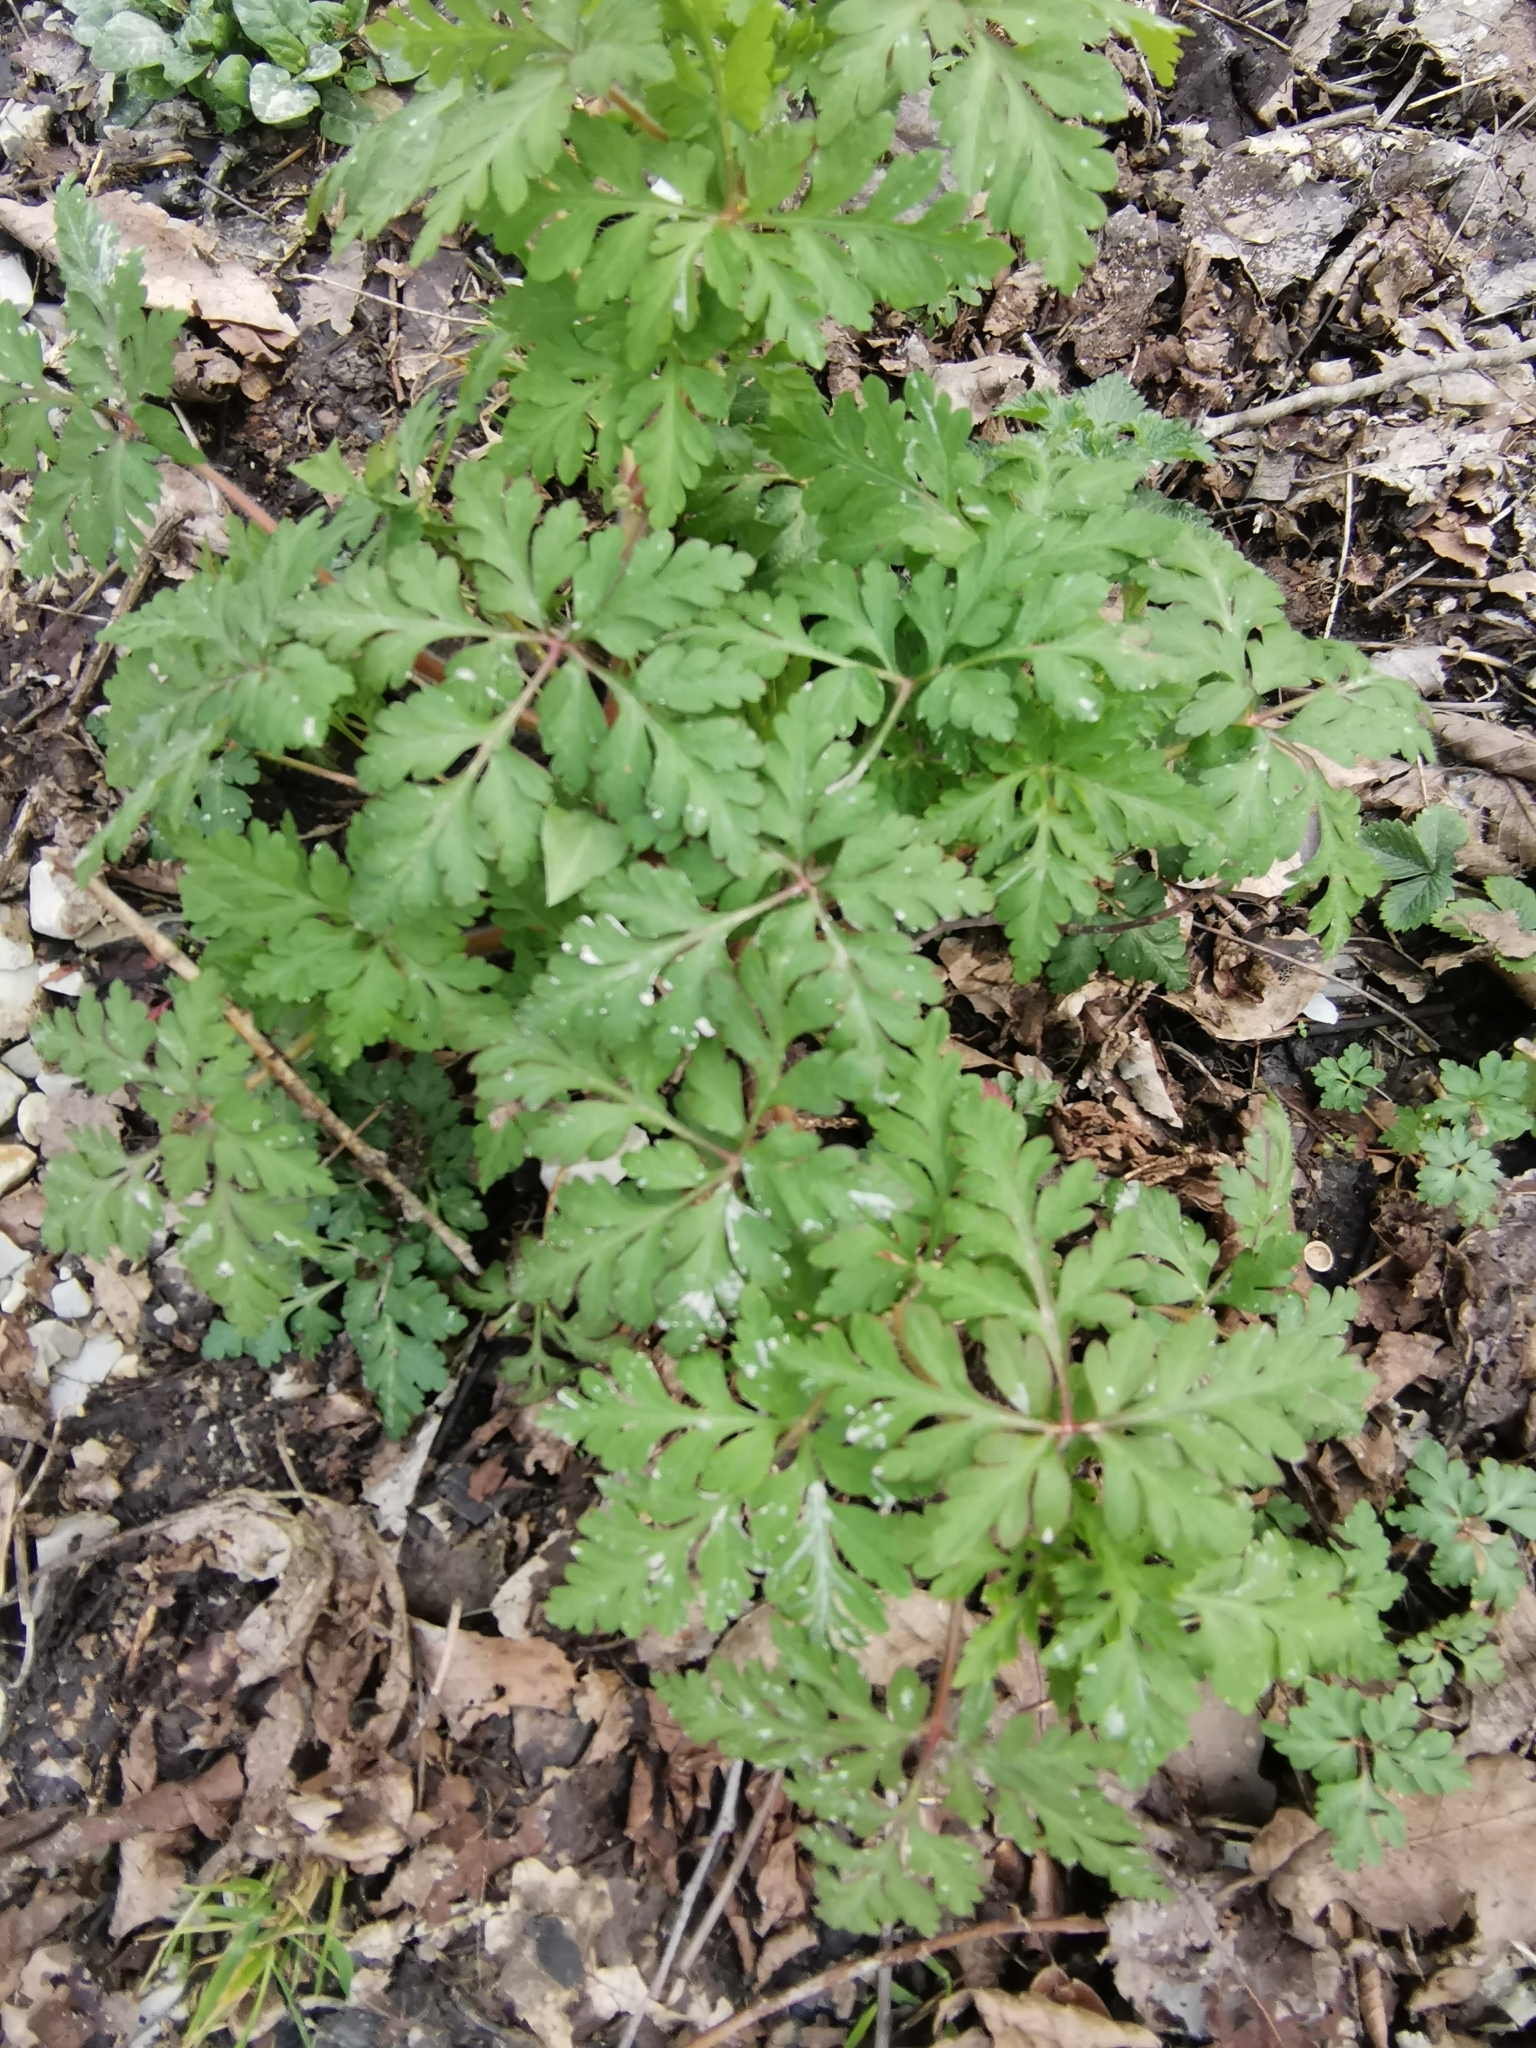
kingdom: Plantae
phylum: Tracheophyta
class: Magnoliopsida
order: Geraniales
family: Geraniaceae
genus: Geranium
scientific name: Geranium robertianum
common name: Herb-robert
